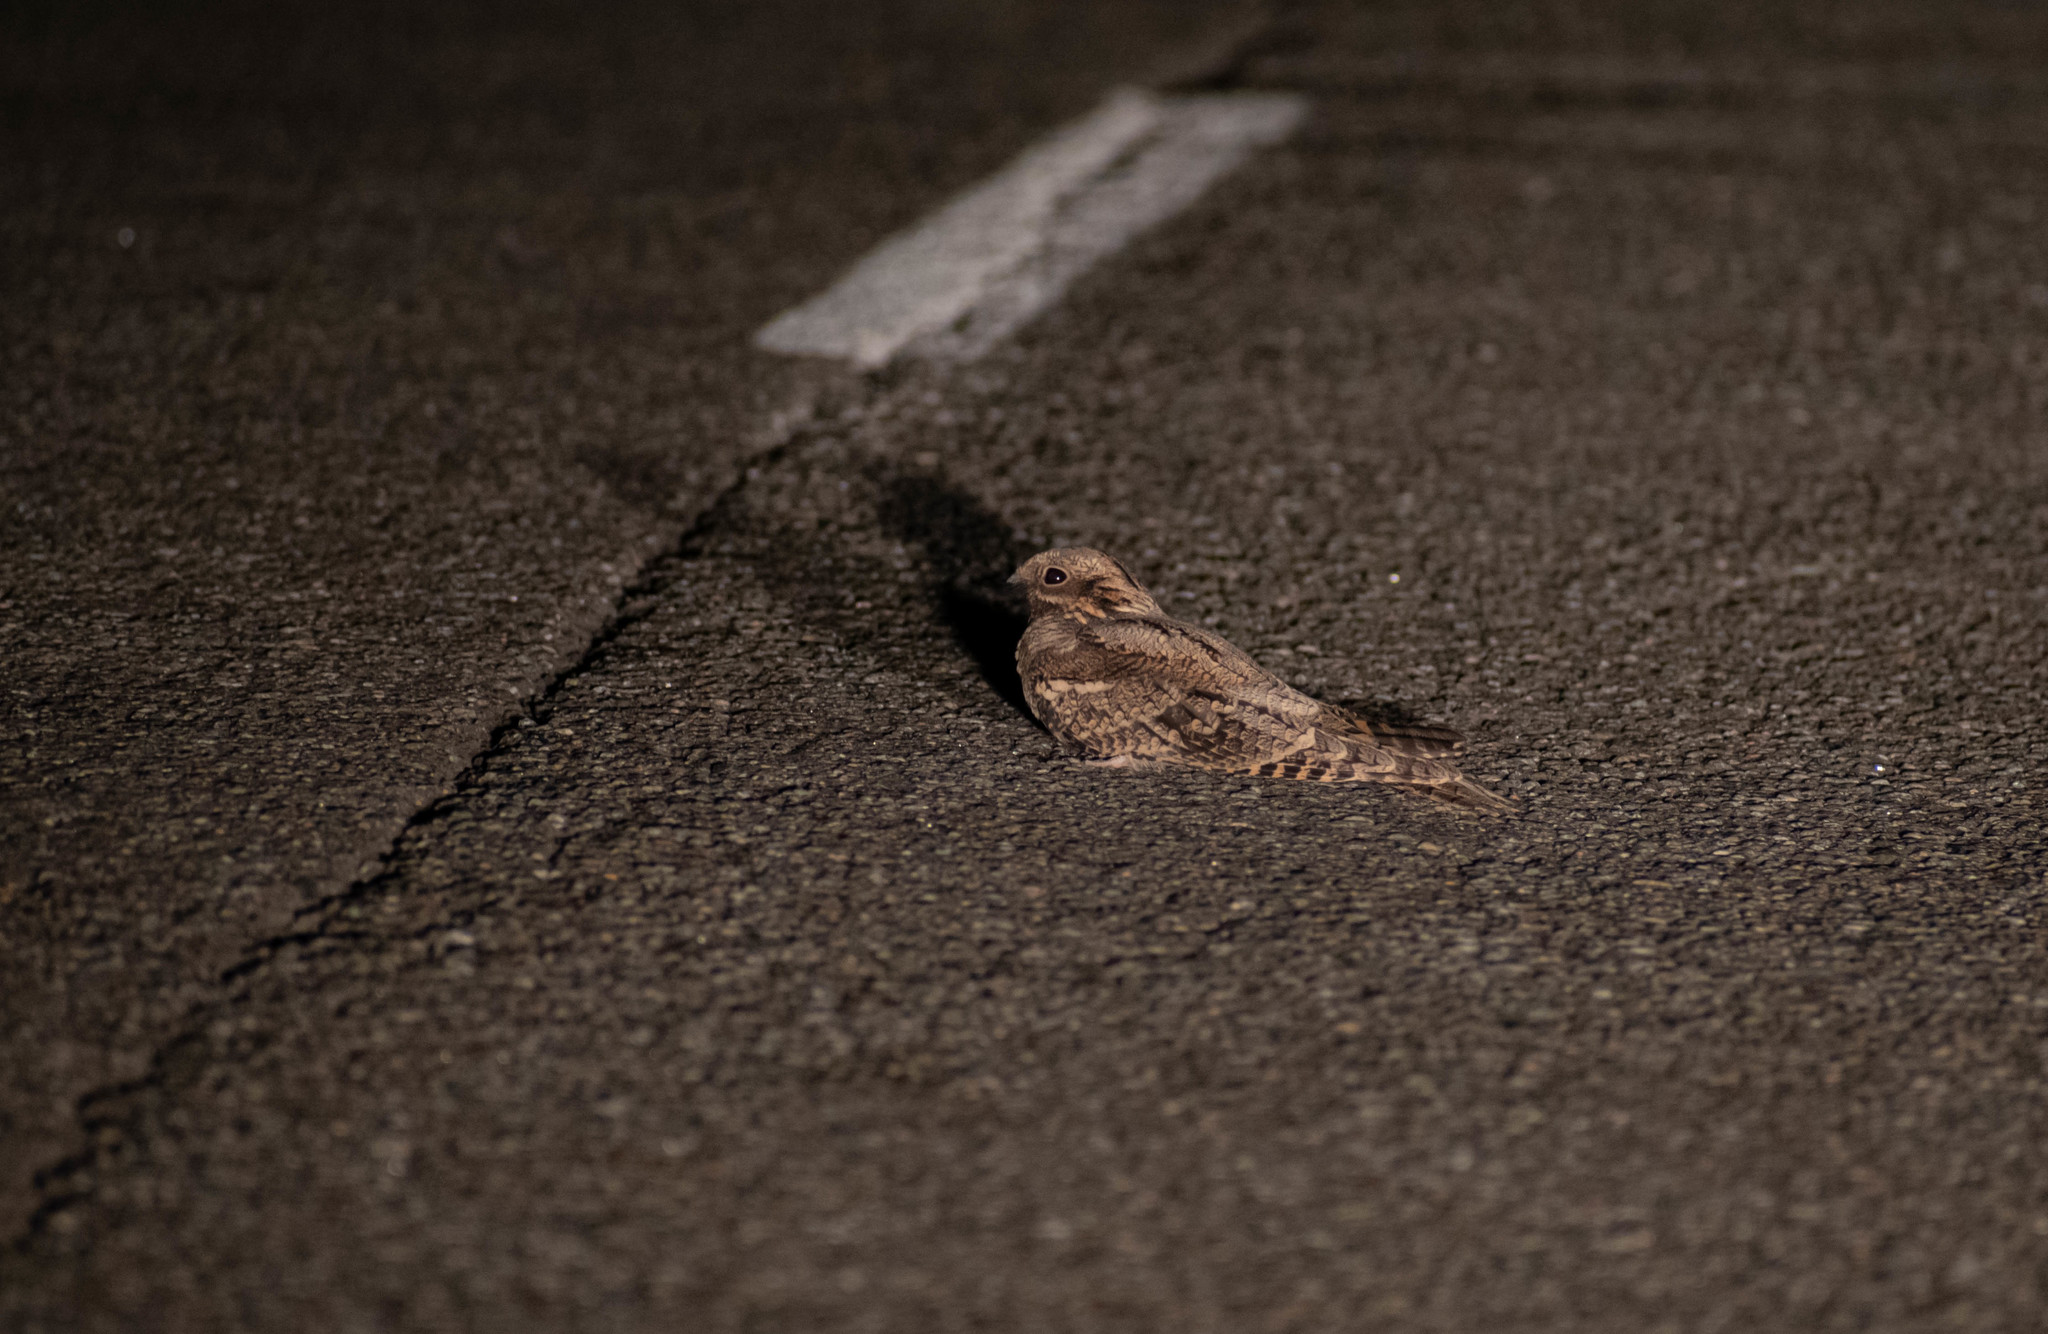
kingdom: Animalia
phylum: Chordata
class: Aves
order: Caprimulgiformes
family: Caprimulgidae
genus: Caprimulgus
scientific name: Caprimulgus europaeus
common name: European nightjar
